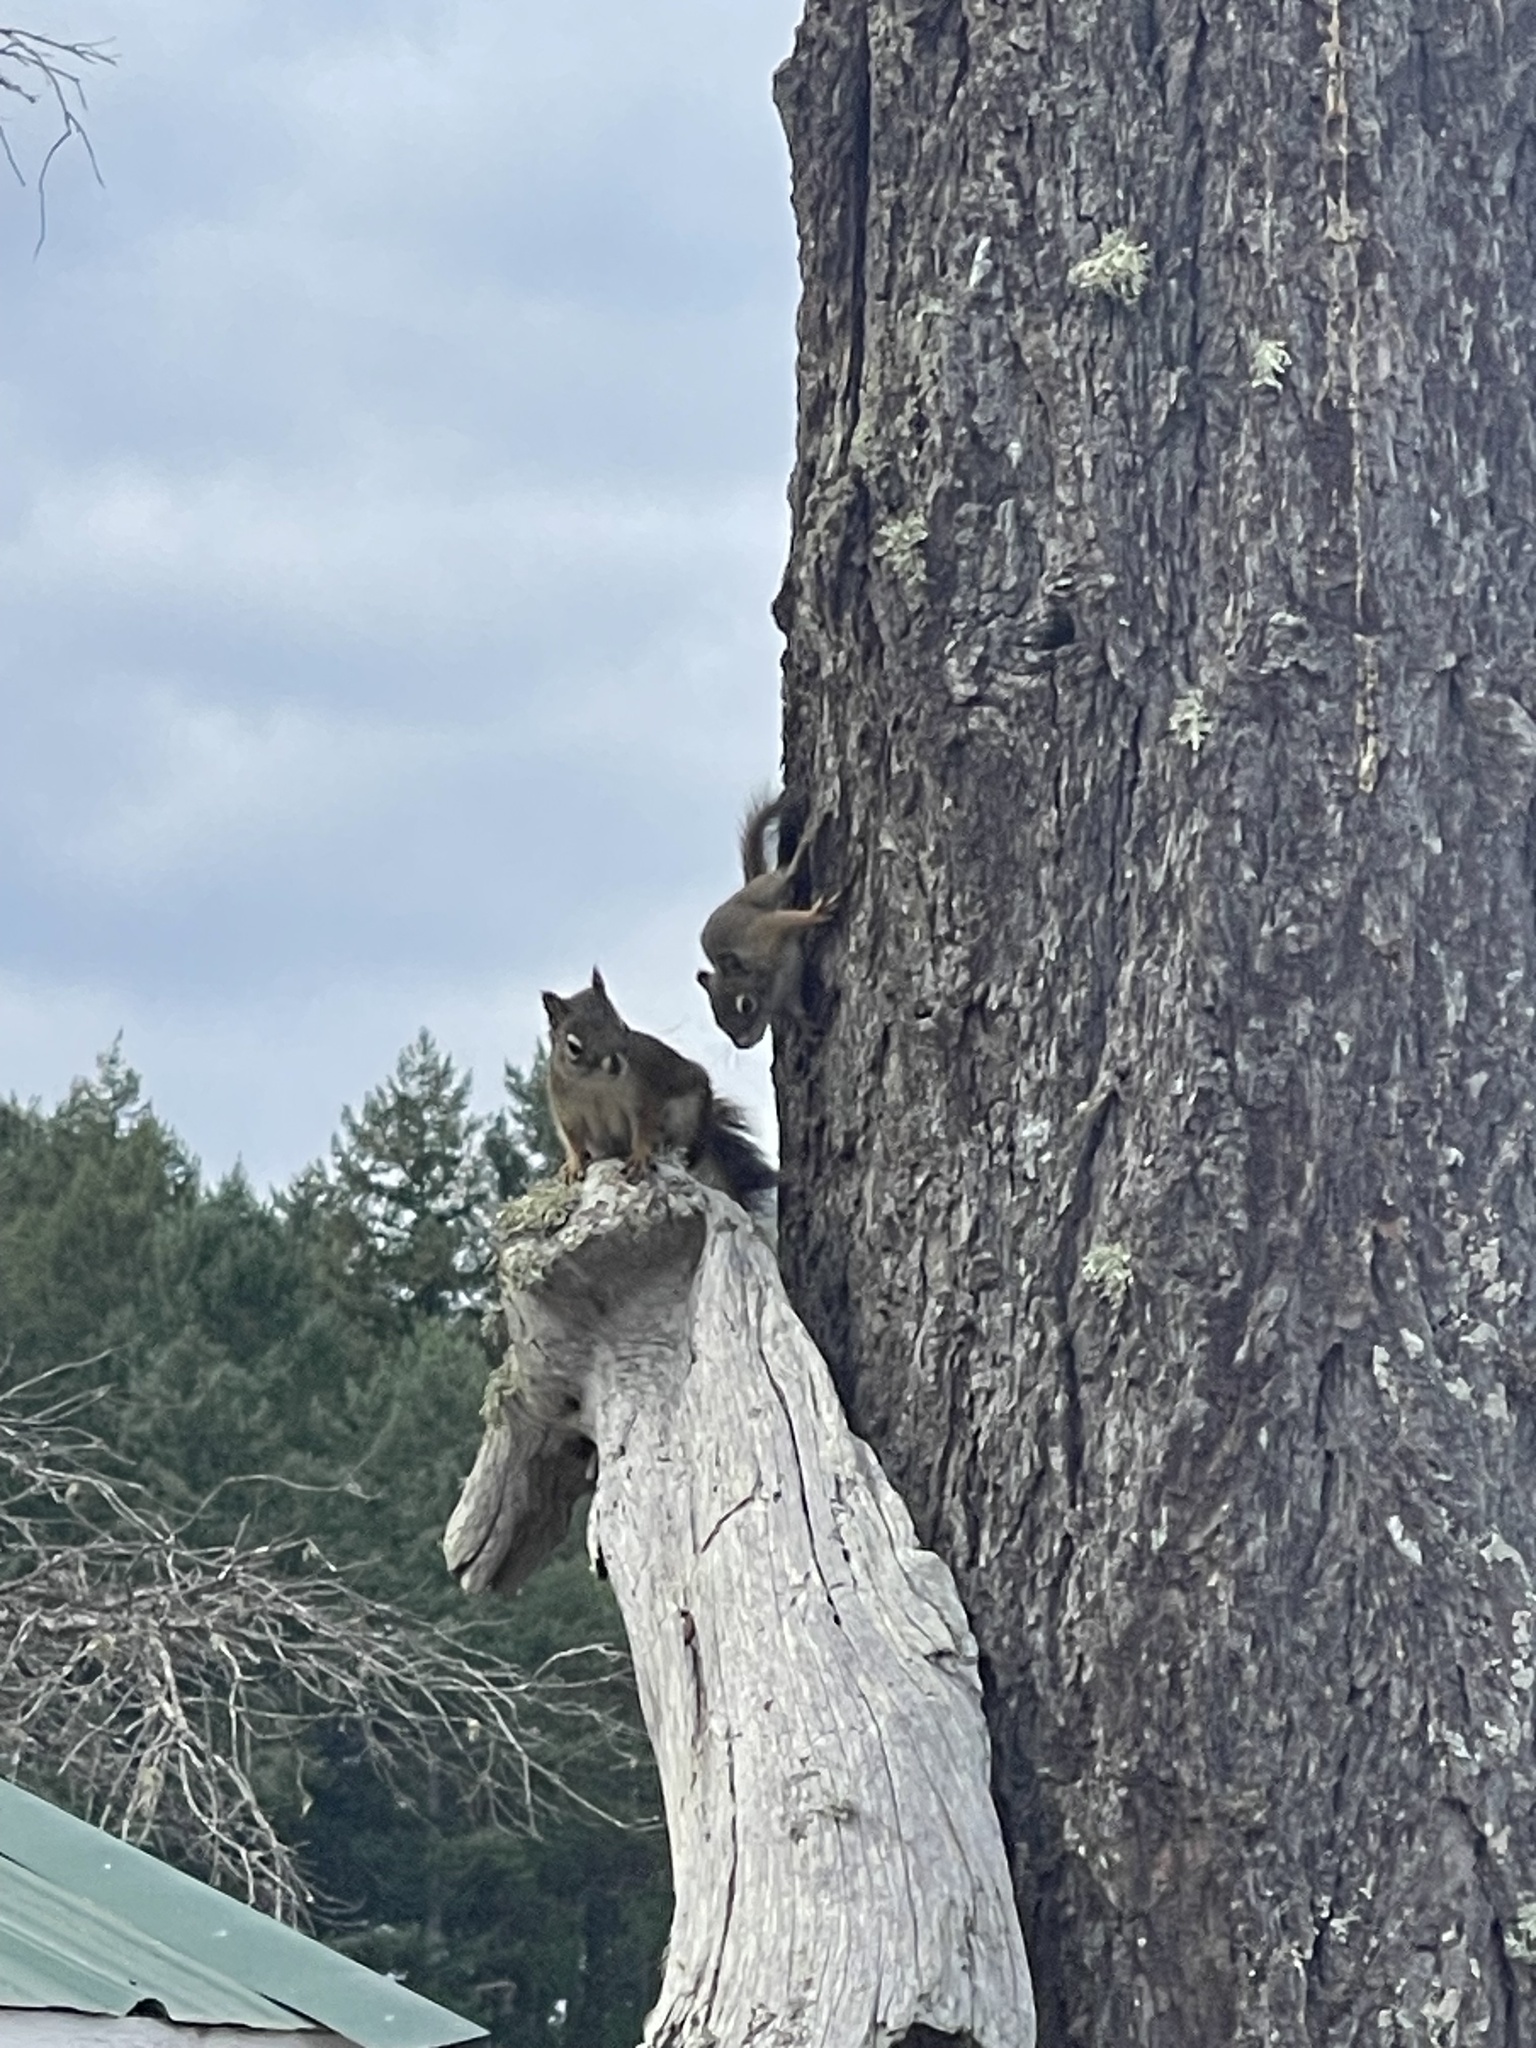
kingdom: Animalia
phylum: Chordata
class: Mammalia
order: Rodentia
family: Sciuridae
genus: Tamiasciurus
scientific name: Tamiasciurus hudsonicus
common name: Red squirrel
